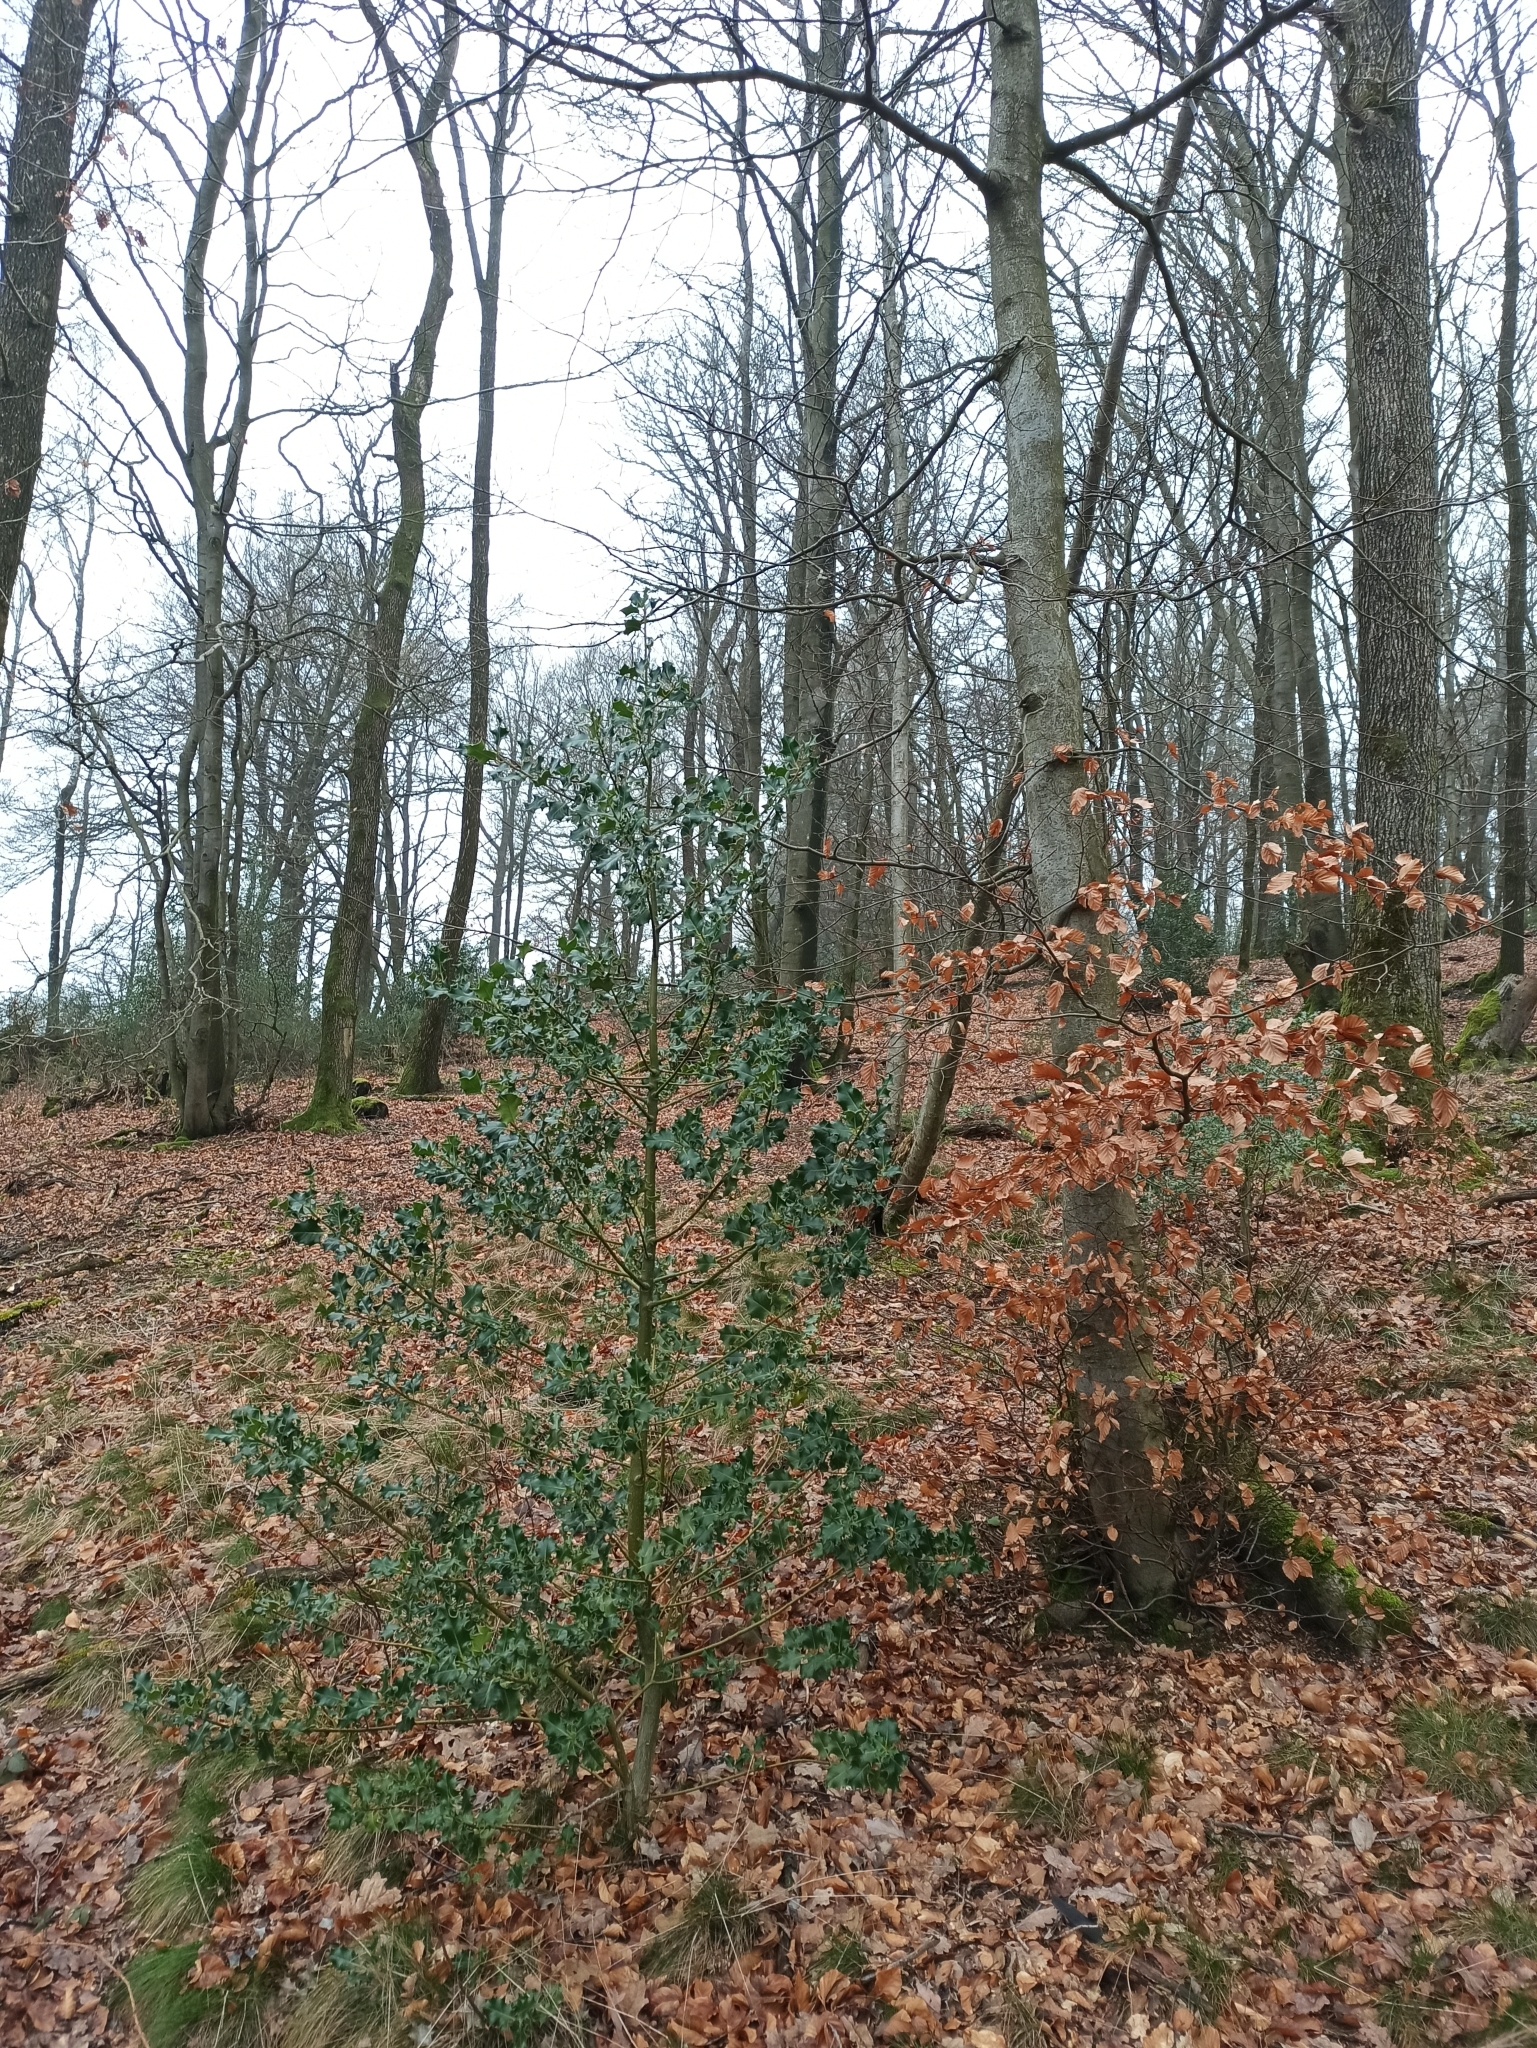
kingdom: Plantae
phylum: Tracheophyta
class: Magnoliopsida
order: Aquifoliales
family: Aquifoliaceae
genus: Ilex
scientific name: Ilex aquifolium
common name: English holly
